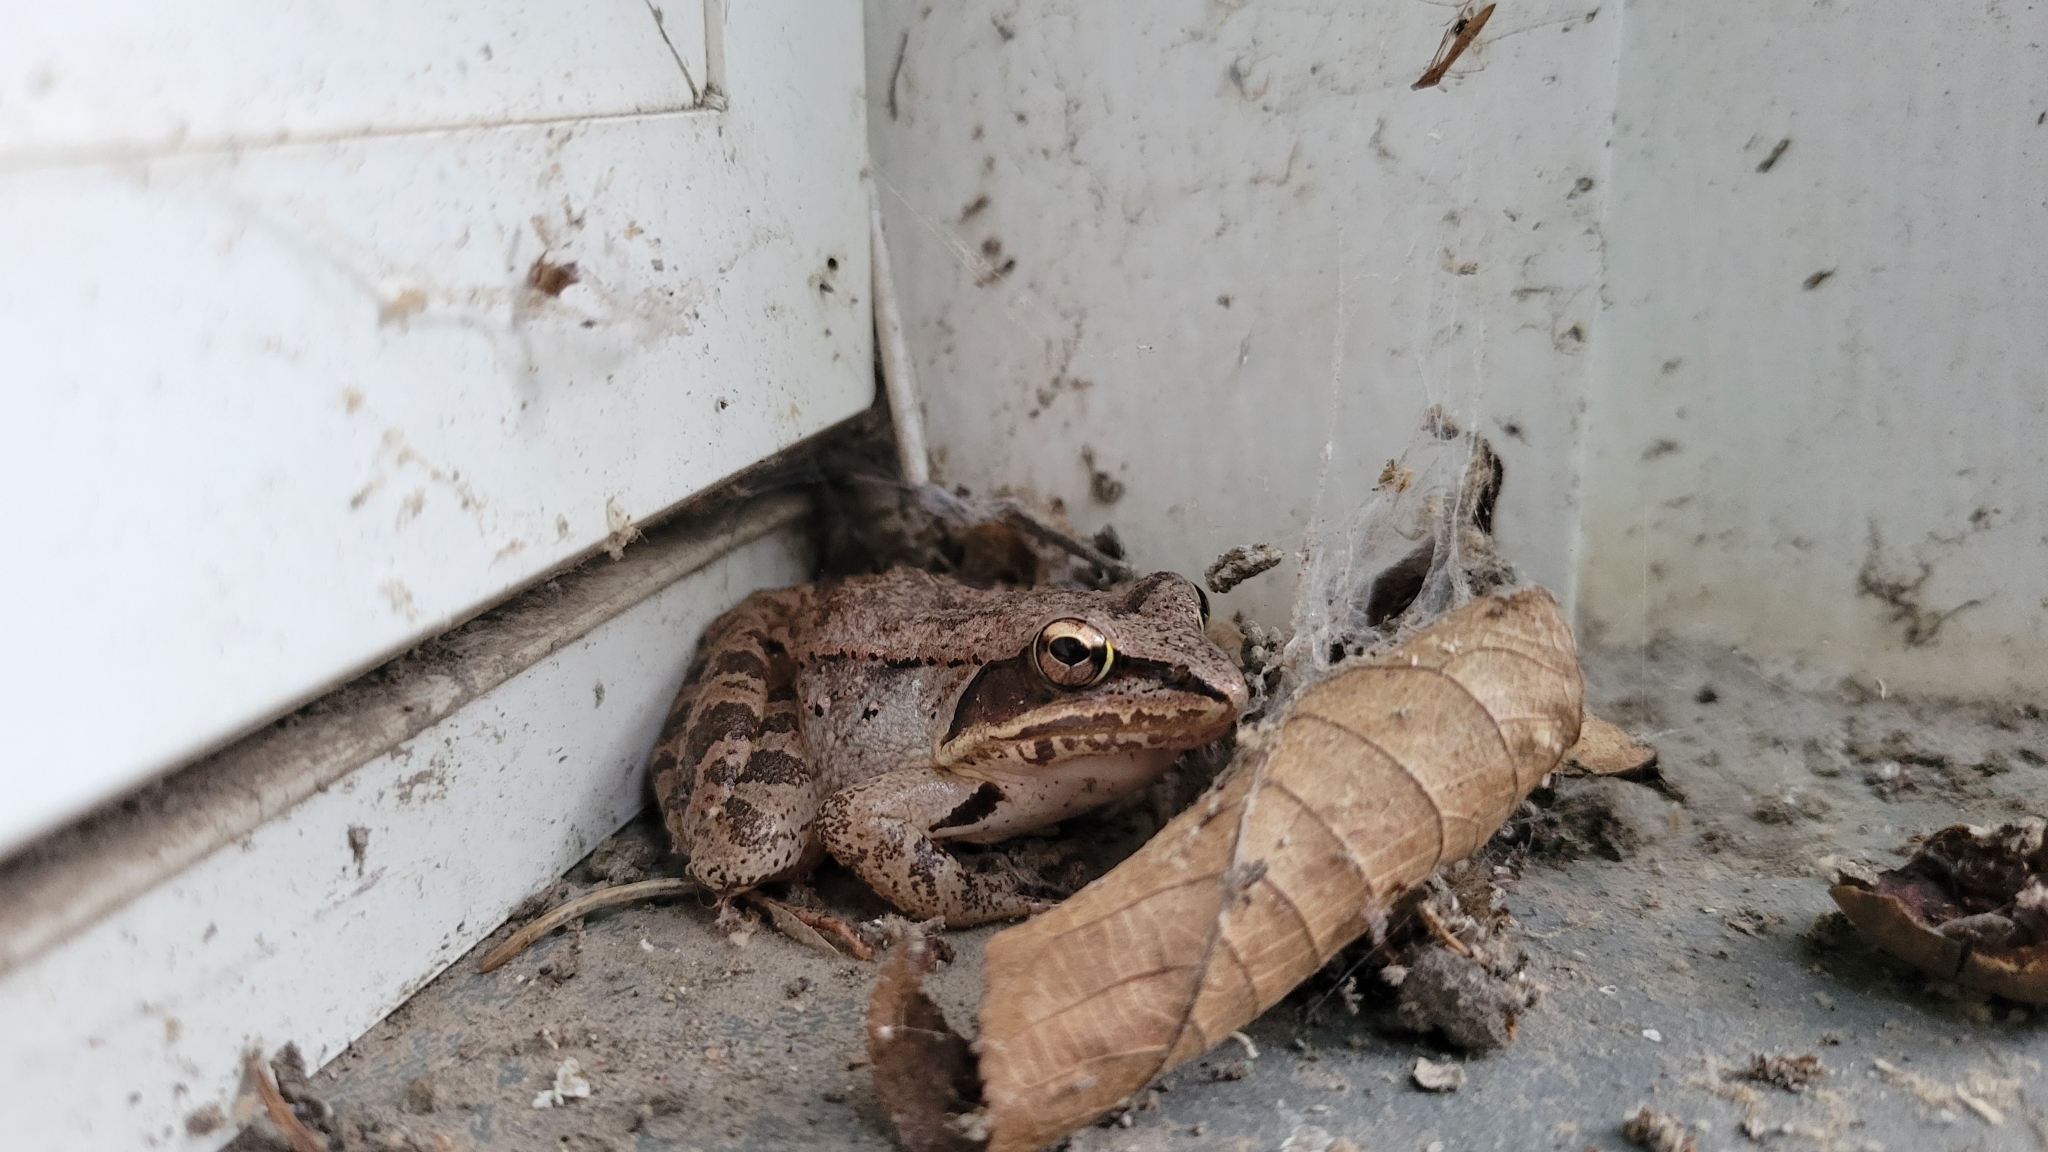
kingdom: Animalia
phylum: Chordata
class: Amphibia
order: Anura
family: Ranidae
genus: Lithobates
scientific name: Lithobates sylvaticus
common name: Wood frog
